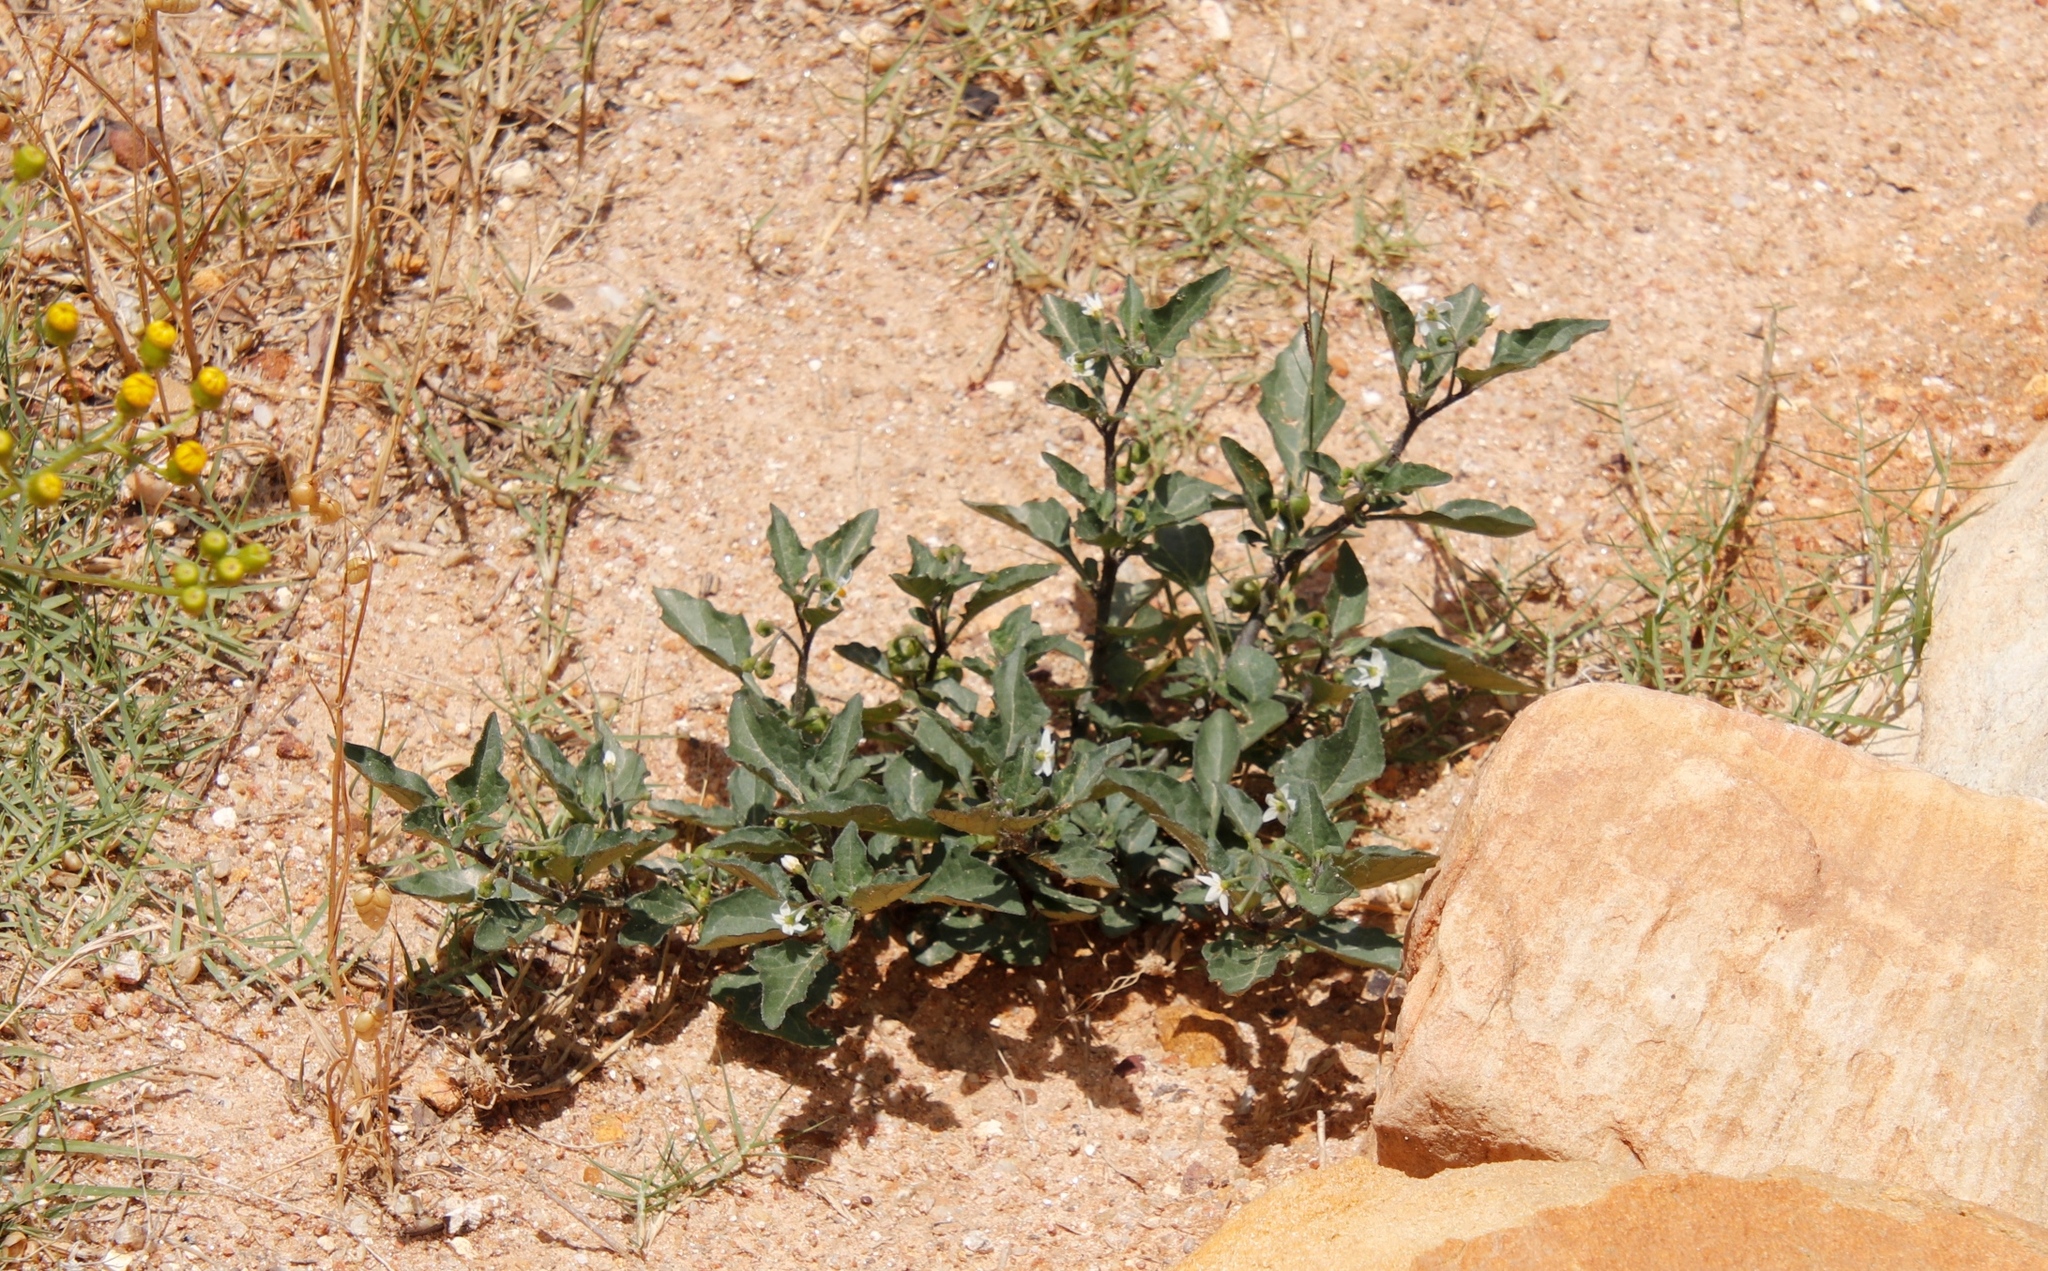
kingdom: Plantae
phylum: Tracheophyta
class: Magnoliopsida
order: Solanales
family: Solanaceae
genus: Solanum
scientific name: Solanum nigrum
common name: Black nightshade
